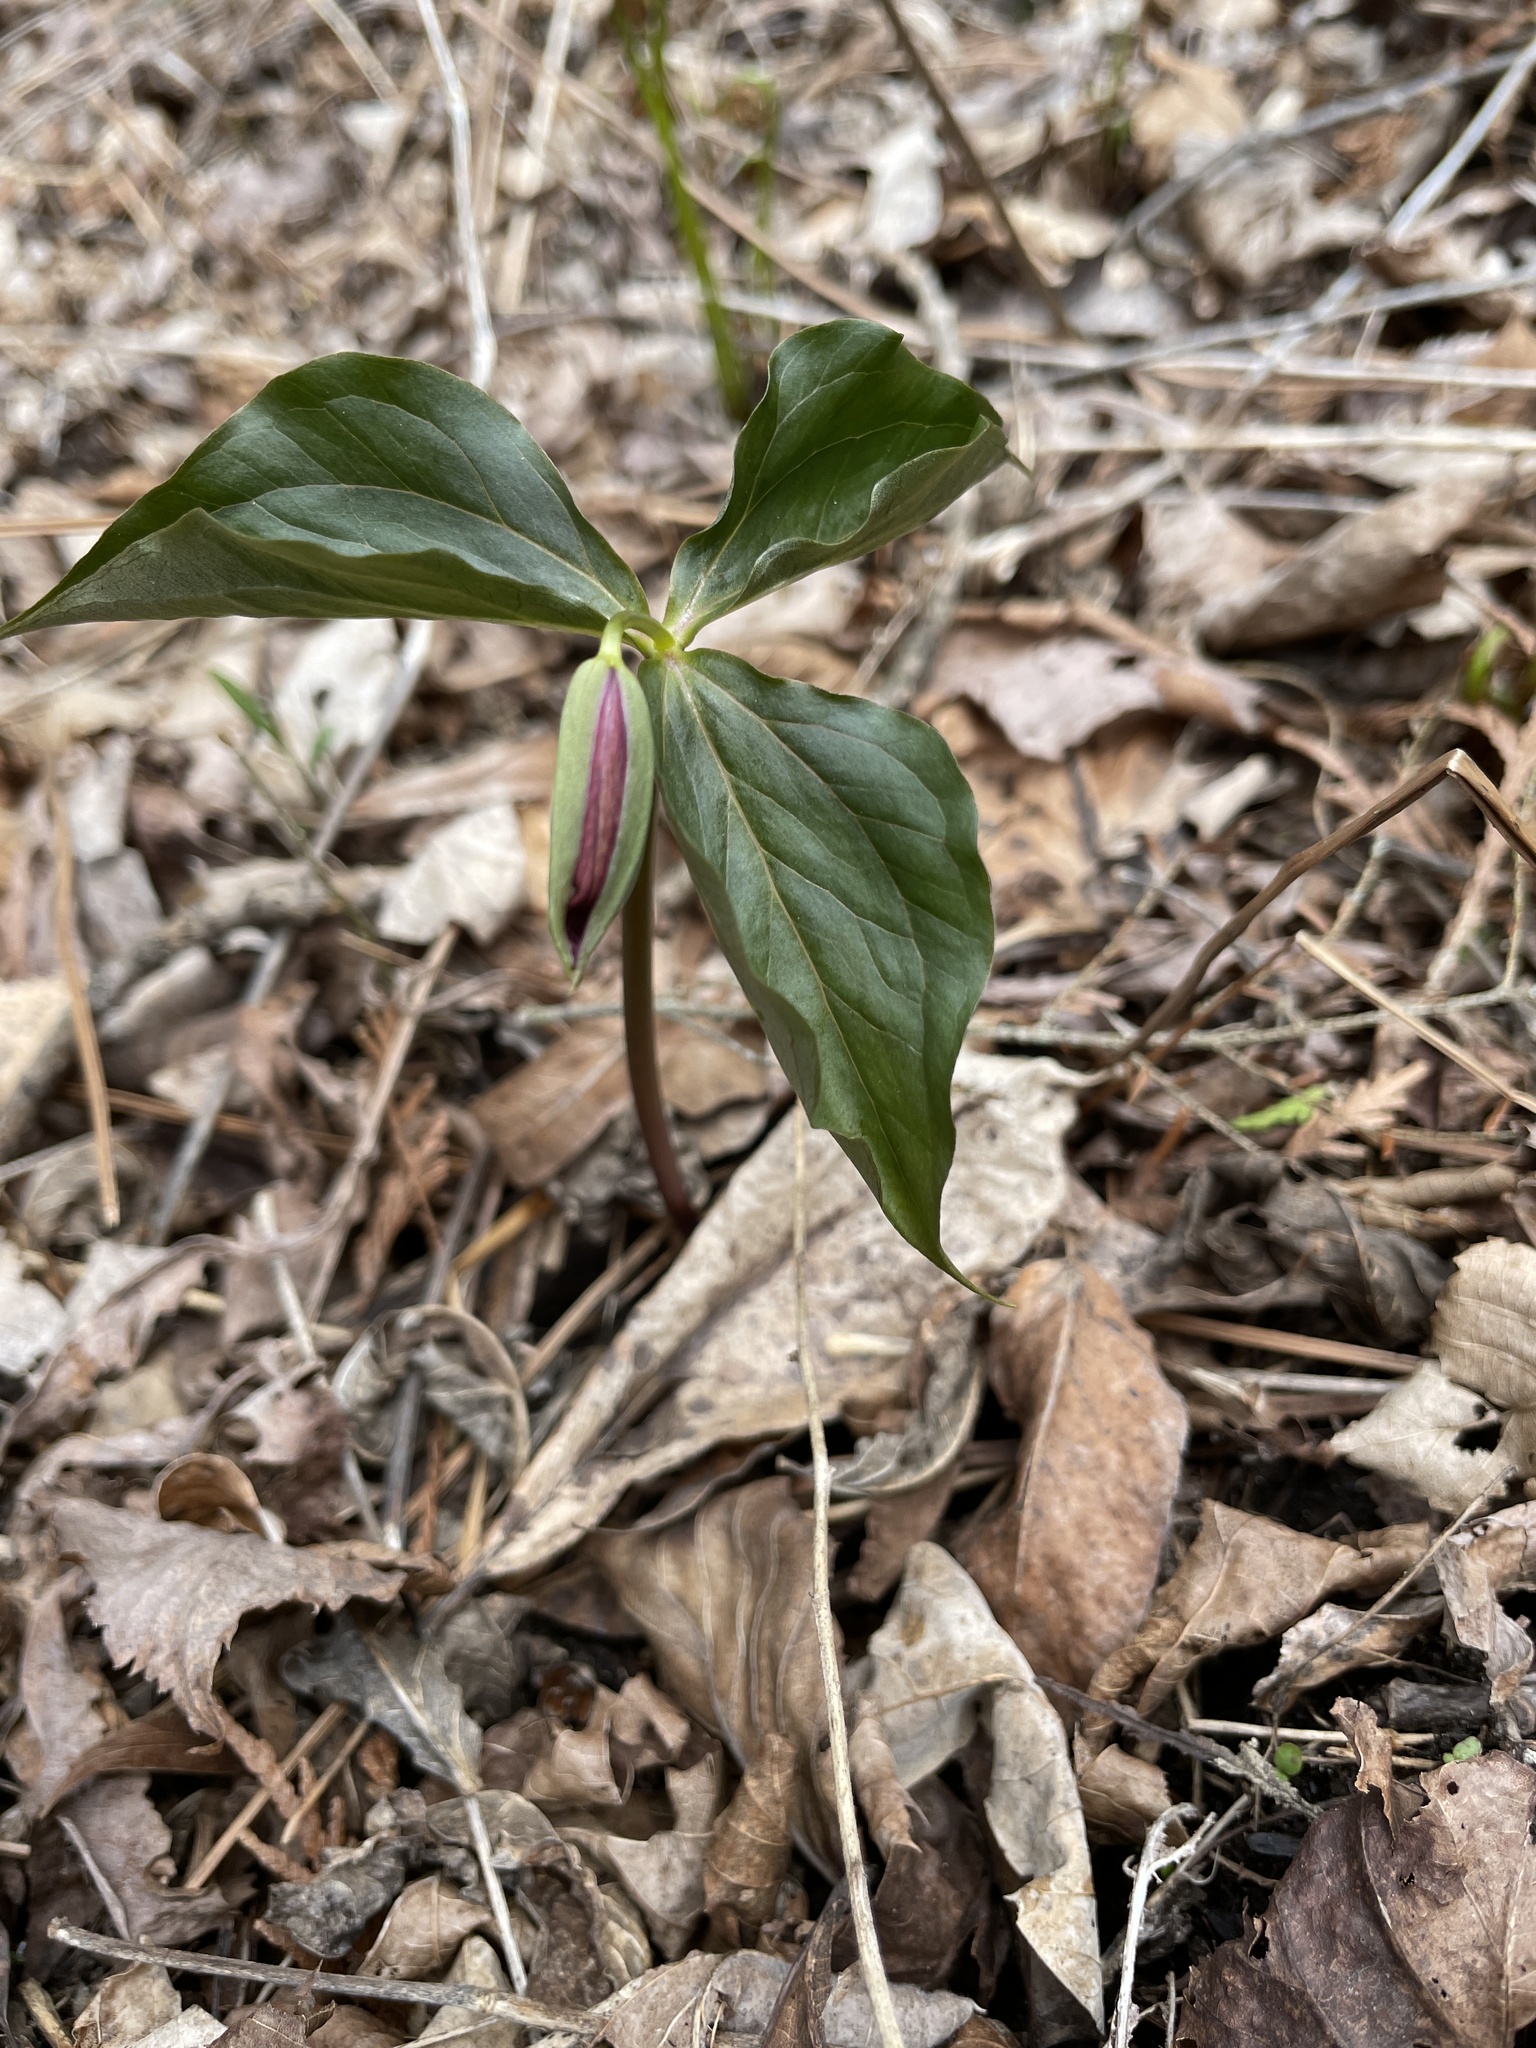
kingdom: Plantae
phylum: Tracheophyta
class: Liliopsida
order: Liliales
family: Melanthiaceae
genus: Trillium
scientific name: Trillium erectum
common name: Purple trillium
